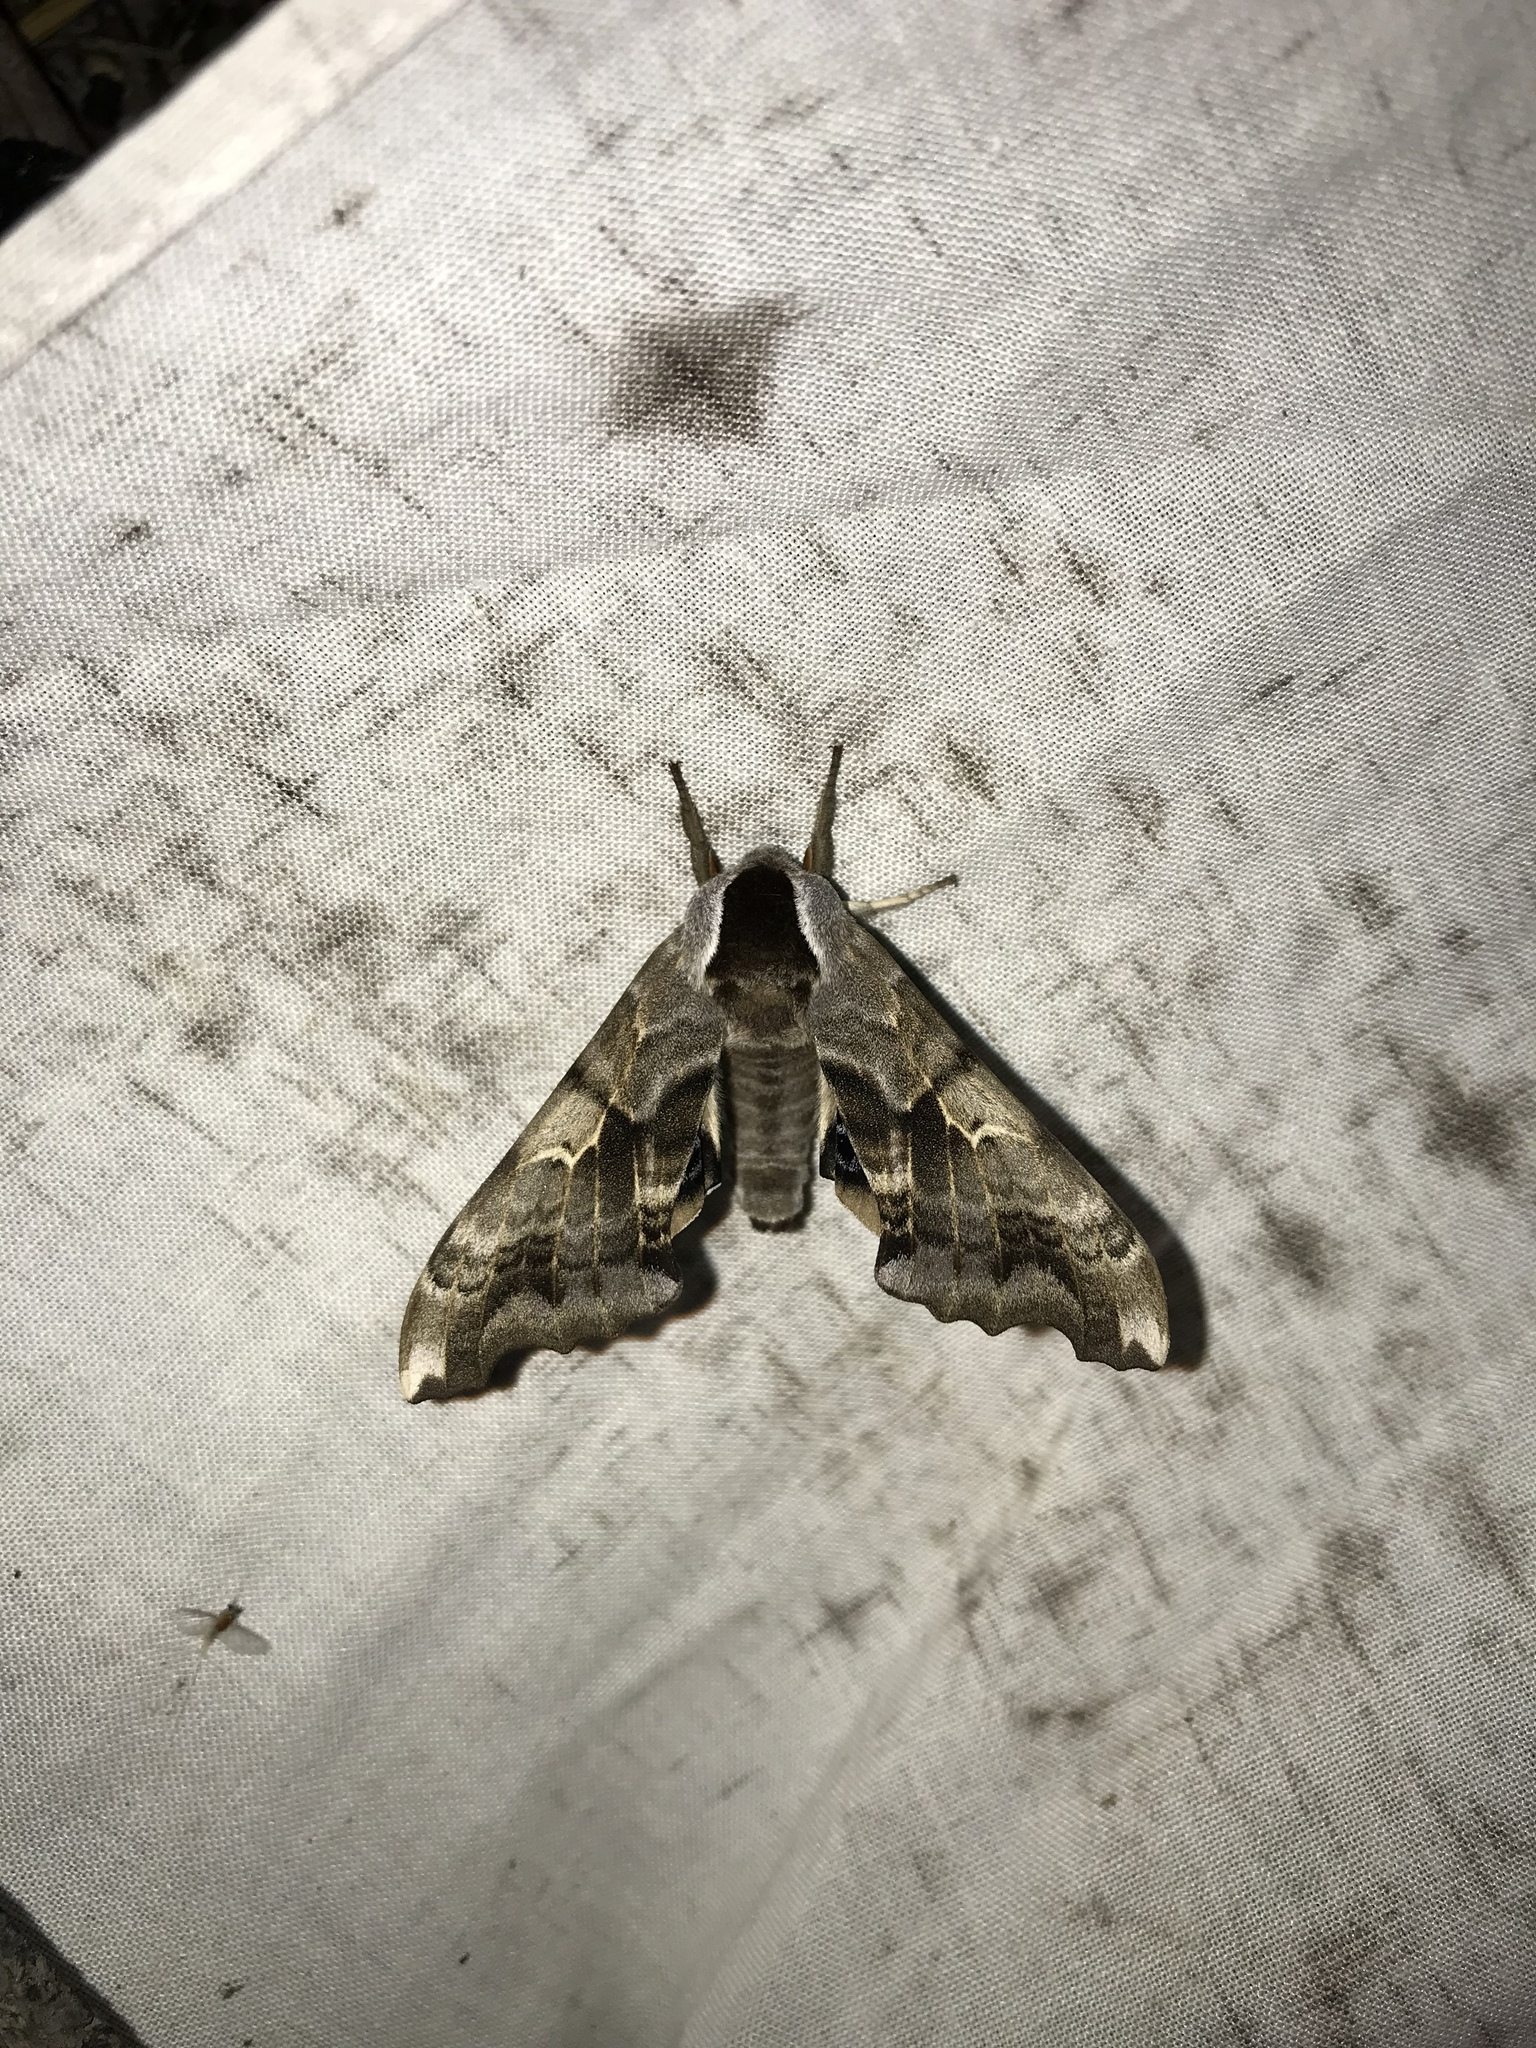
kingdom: Animalia
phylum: Arthropoda
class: Insecta
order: Lepidoptera
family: Sphingidae
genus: Smerinthus
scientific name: Smerinthus cerisyi
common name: Cerisy's sphinx moth
